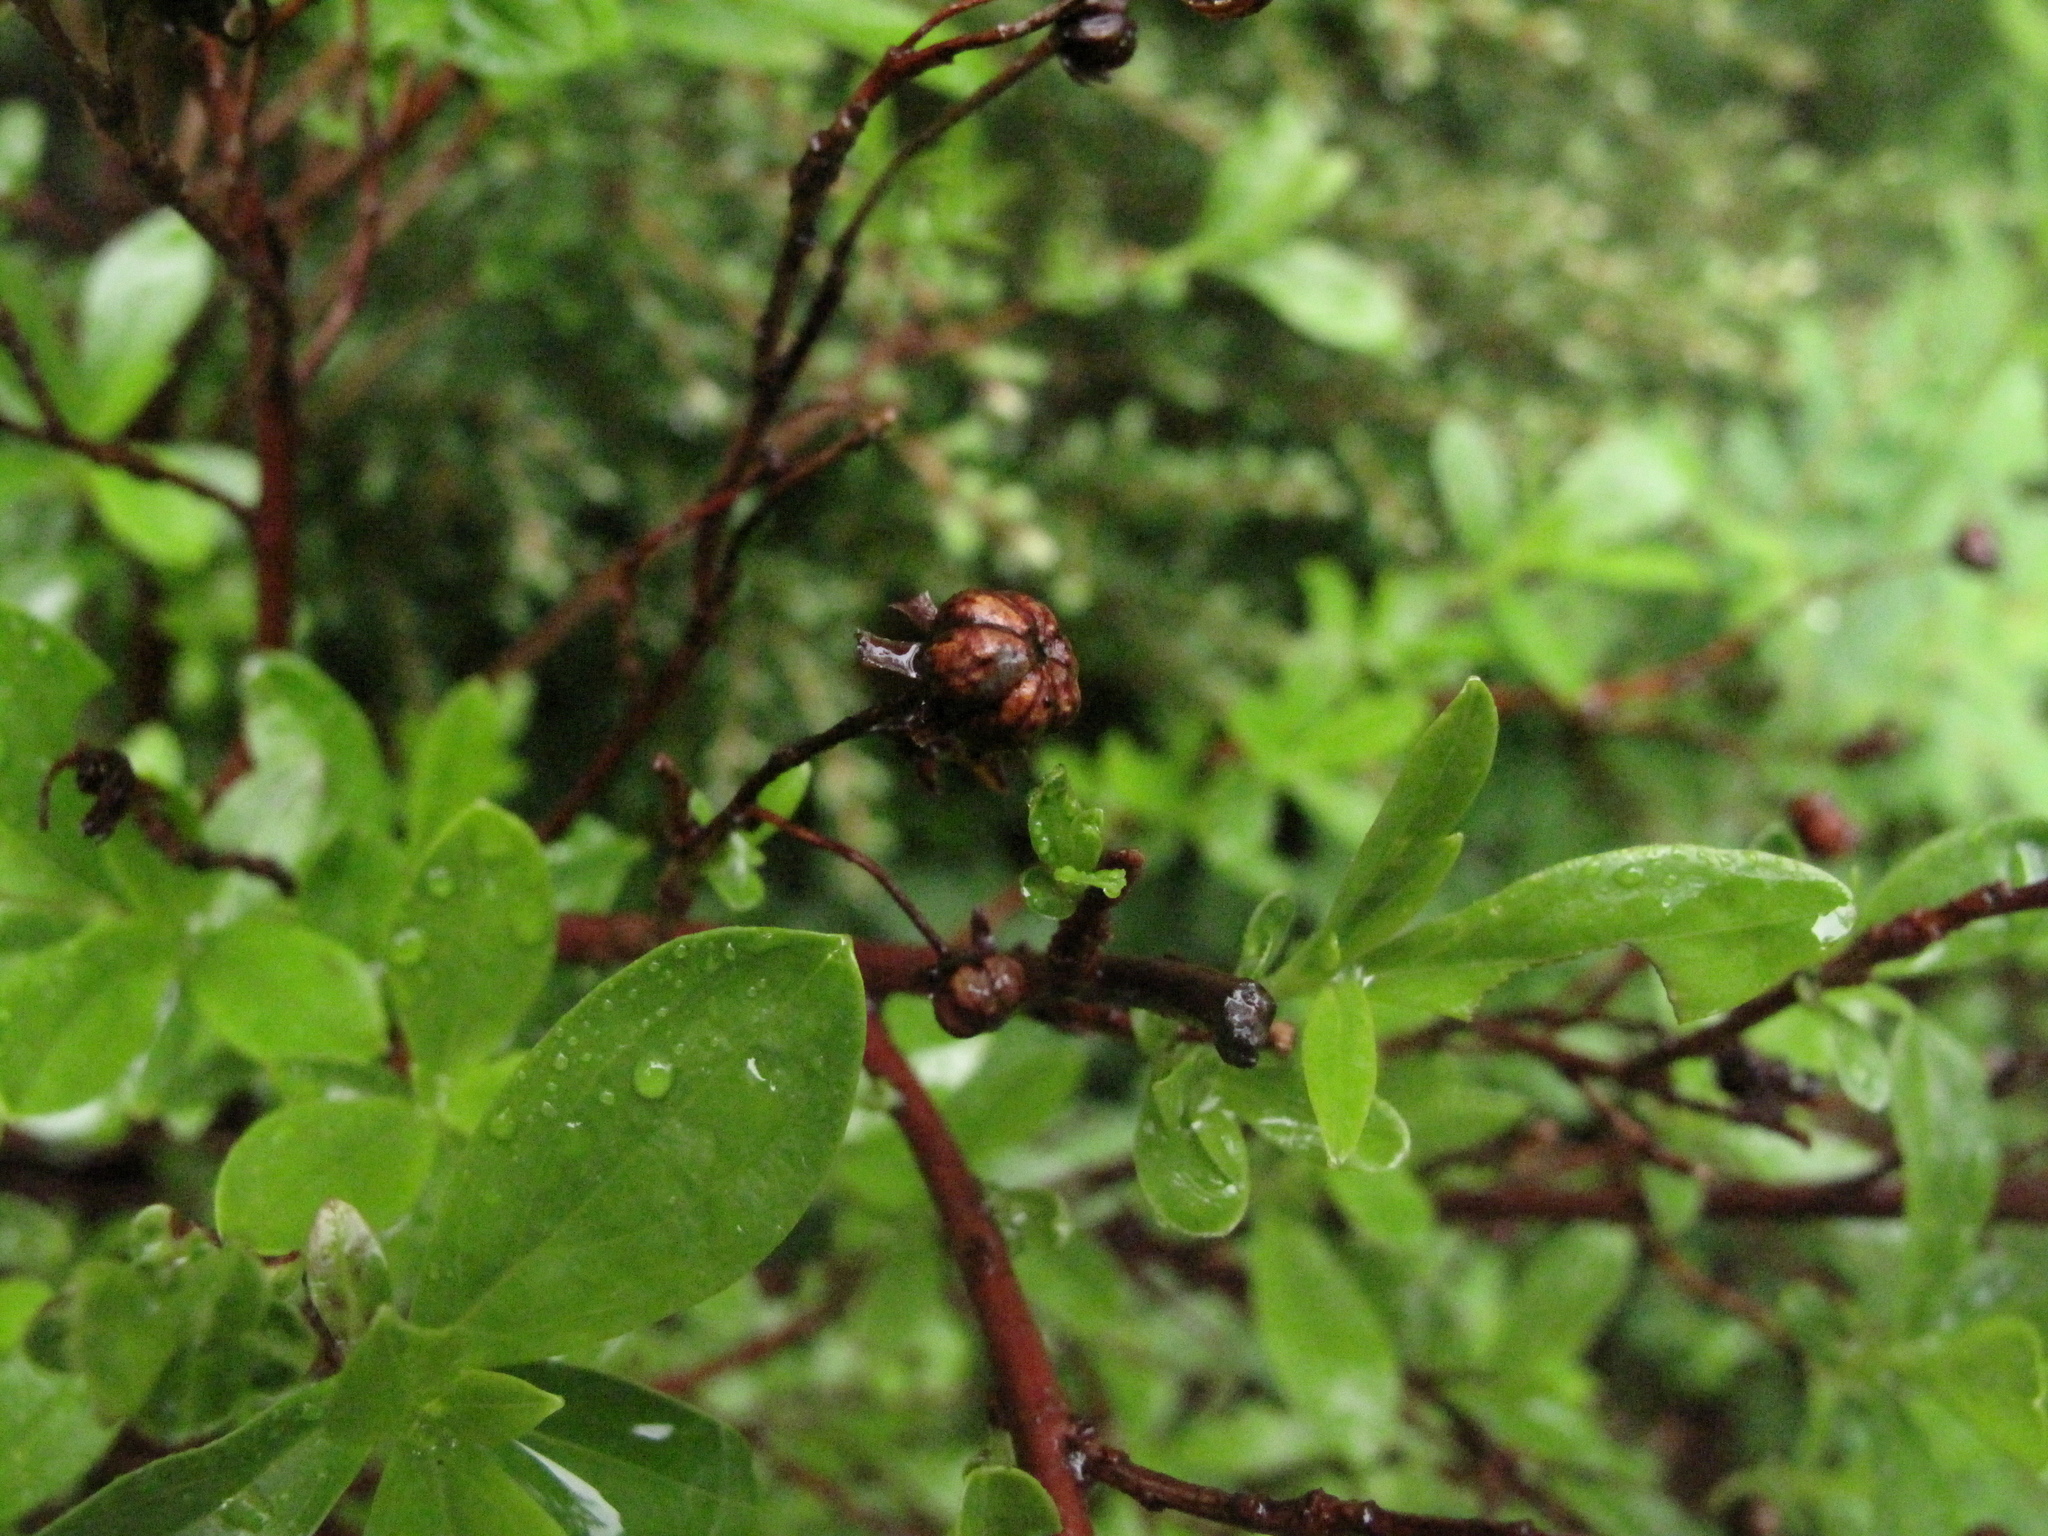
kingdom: Plantae
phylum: Tracheophyta
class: Magnoliopsida
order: Ericales
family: Ericaceae
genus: Elliottia
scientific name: Elliottia pyroliflora
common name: Copperbush
